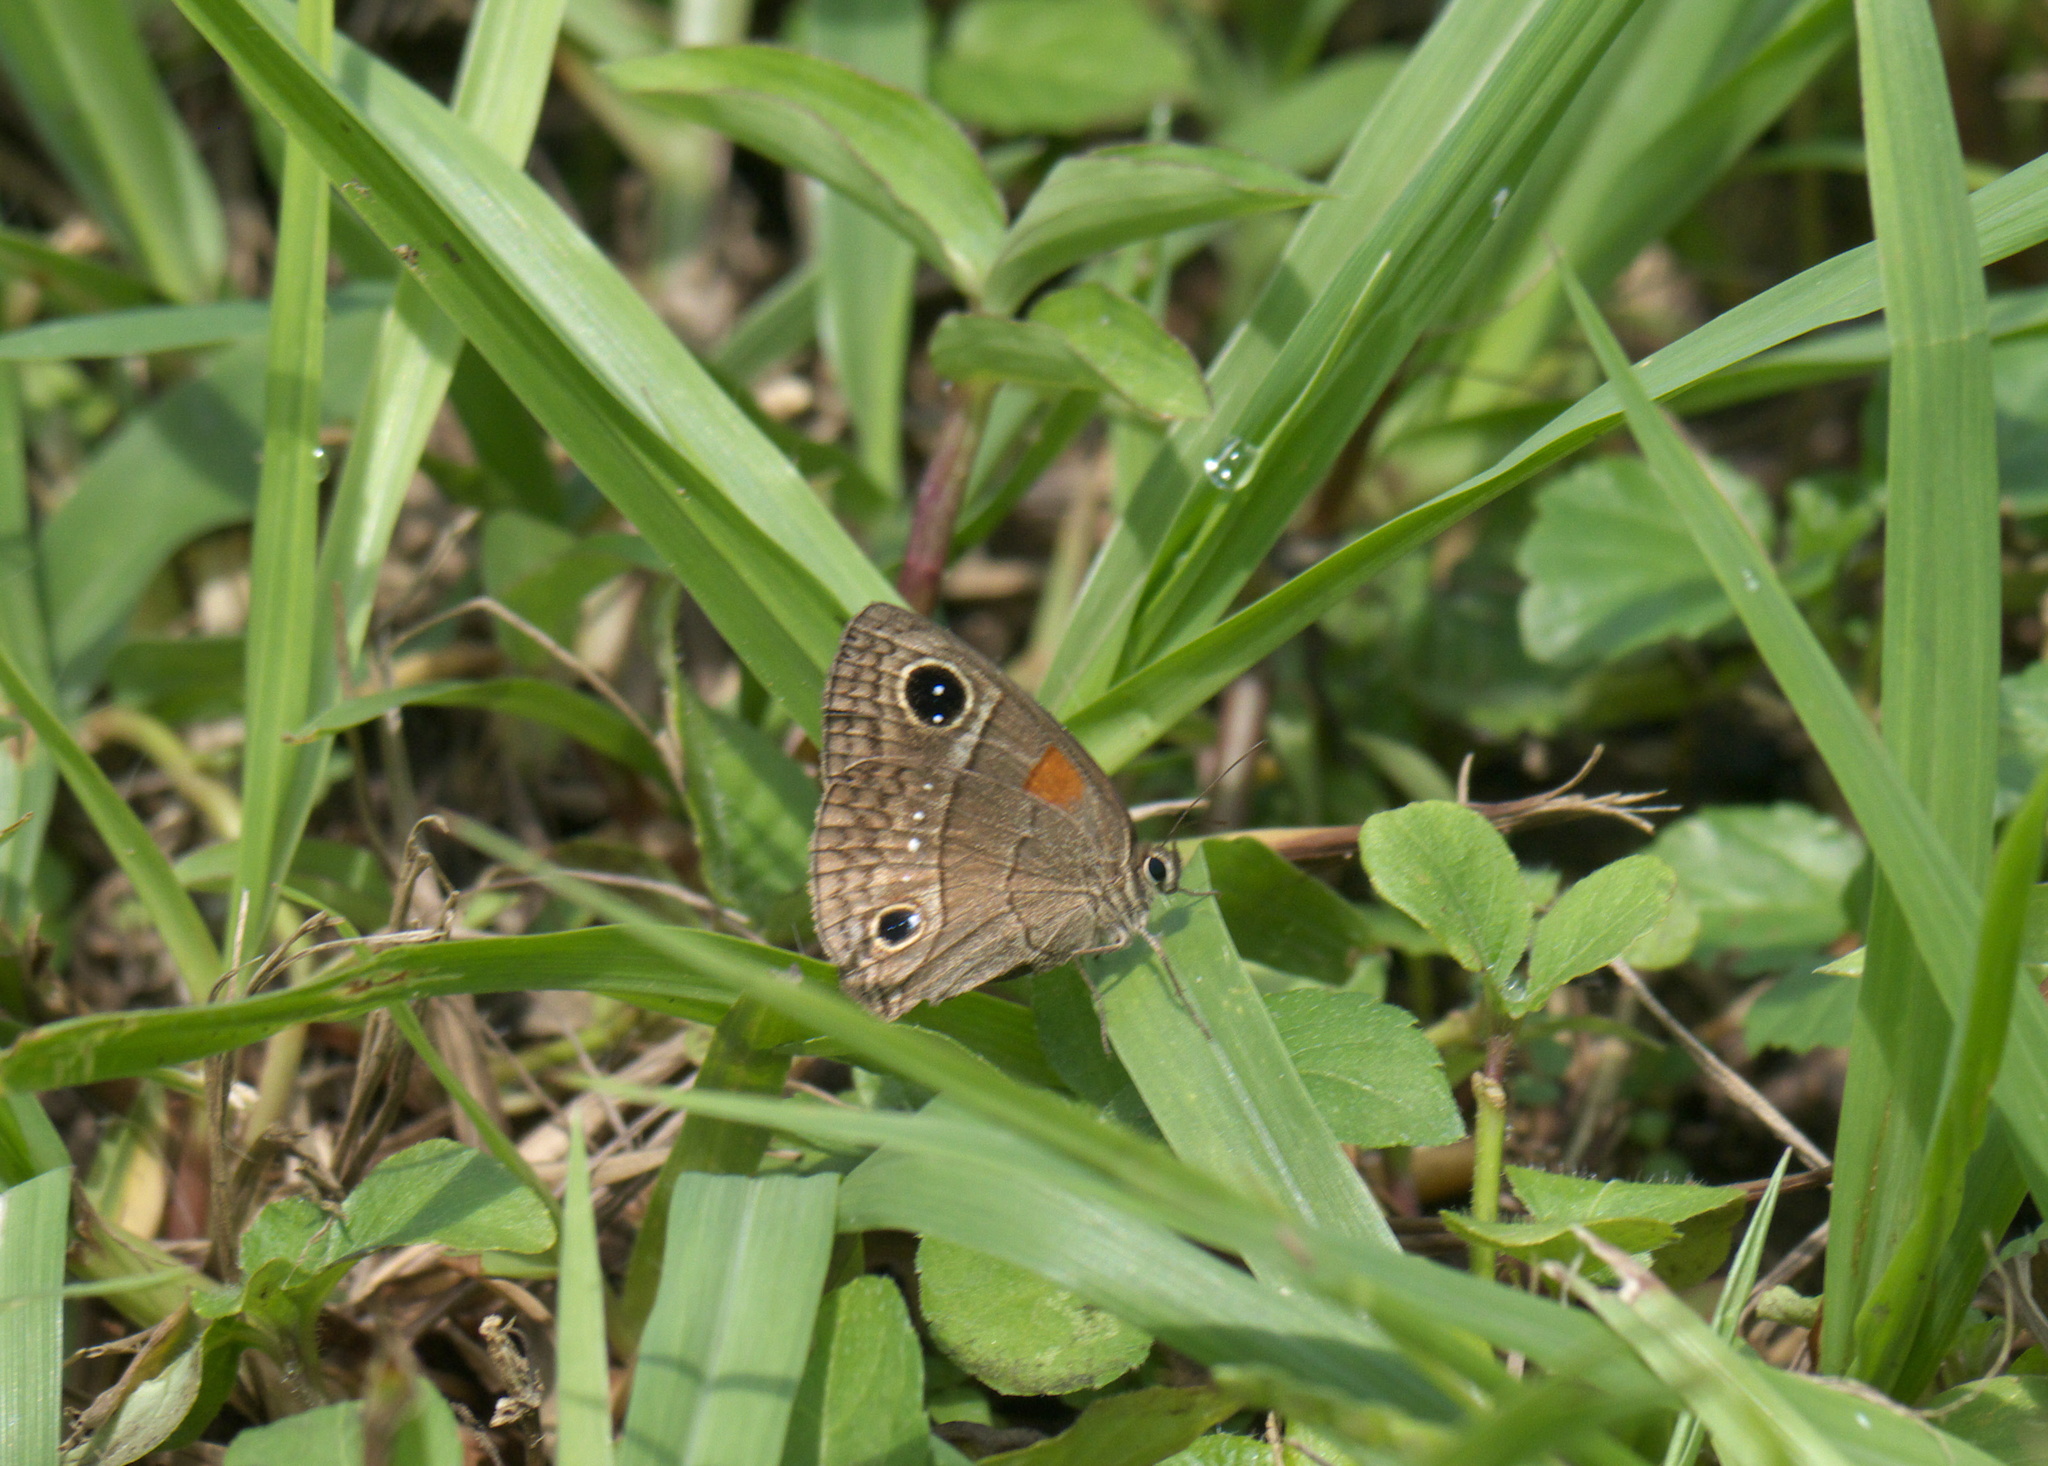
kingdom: Animalia
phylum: Arthropoda
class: Insecta
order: Lepidoptera
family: Nymphalidae
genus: Calisto
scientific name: Calisto herophile
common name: Cuban calisto
